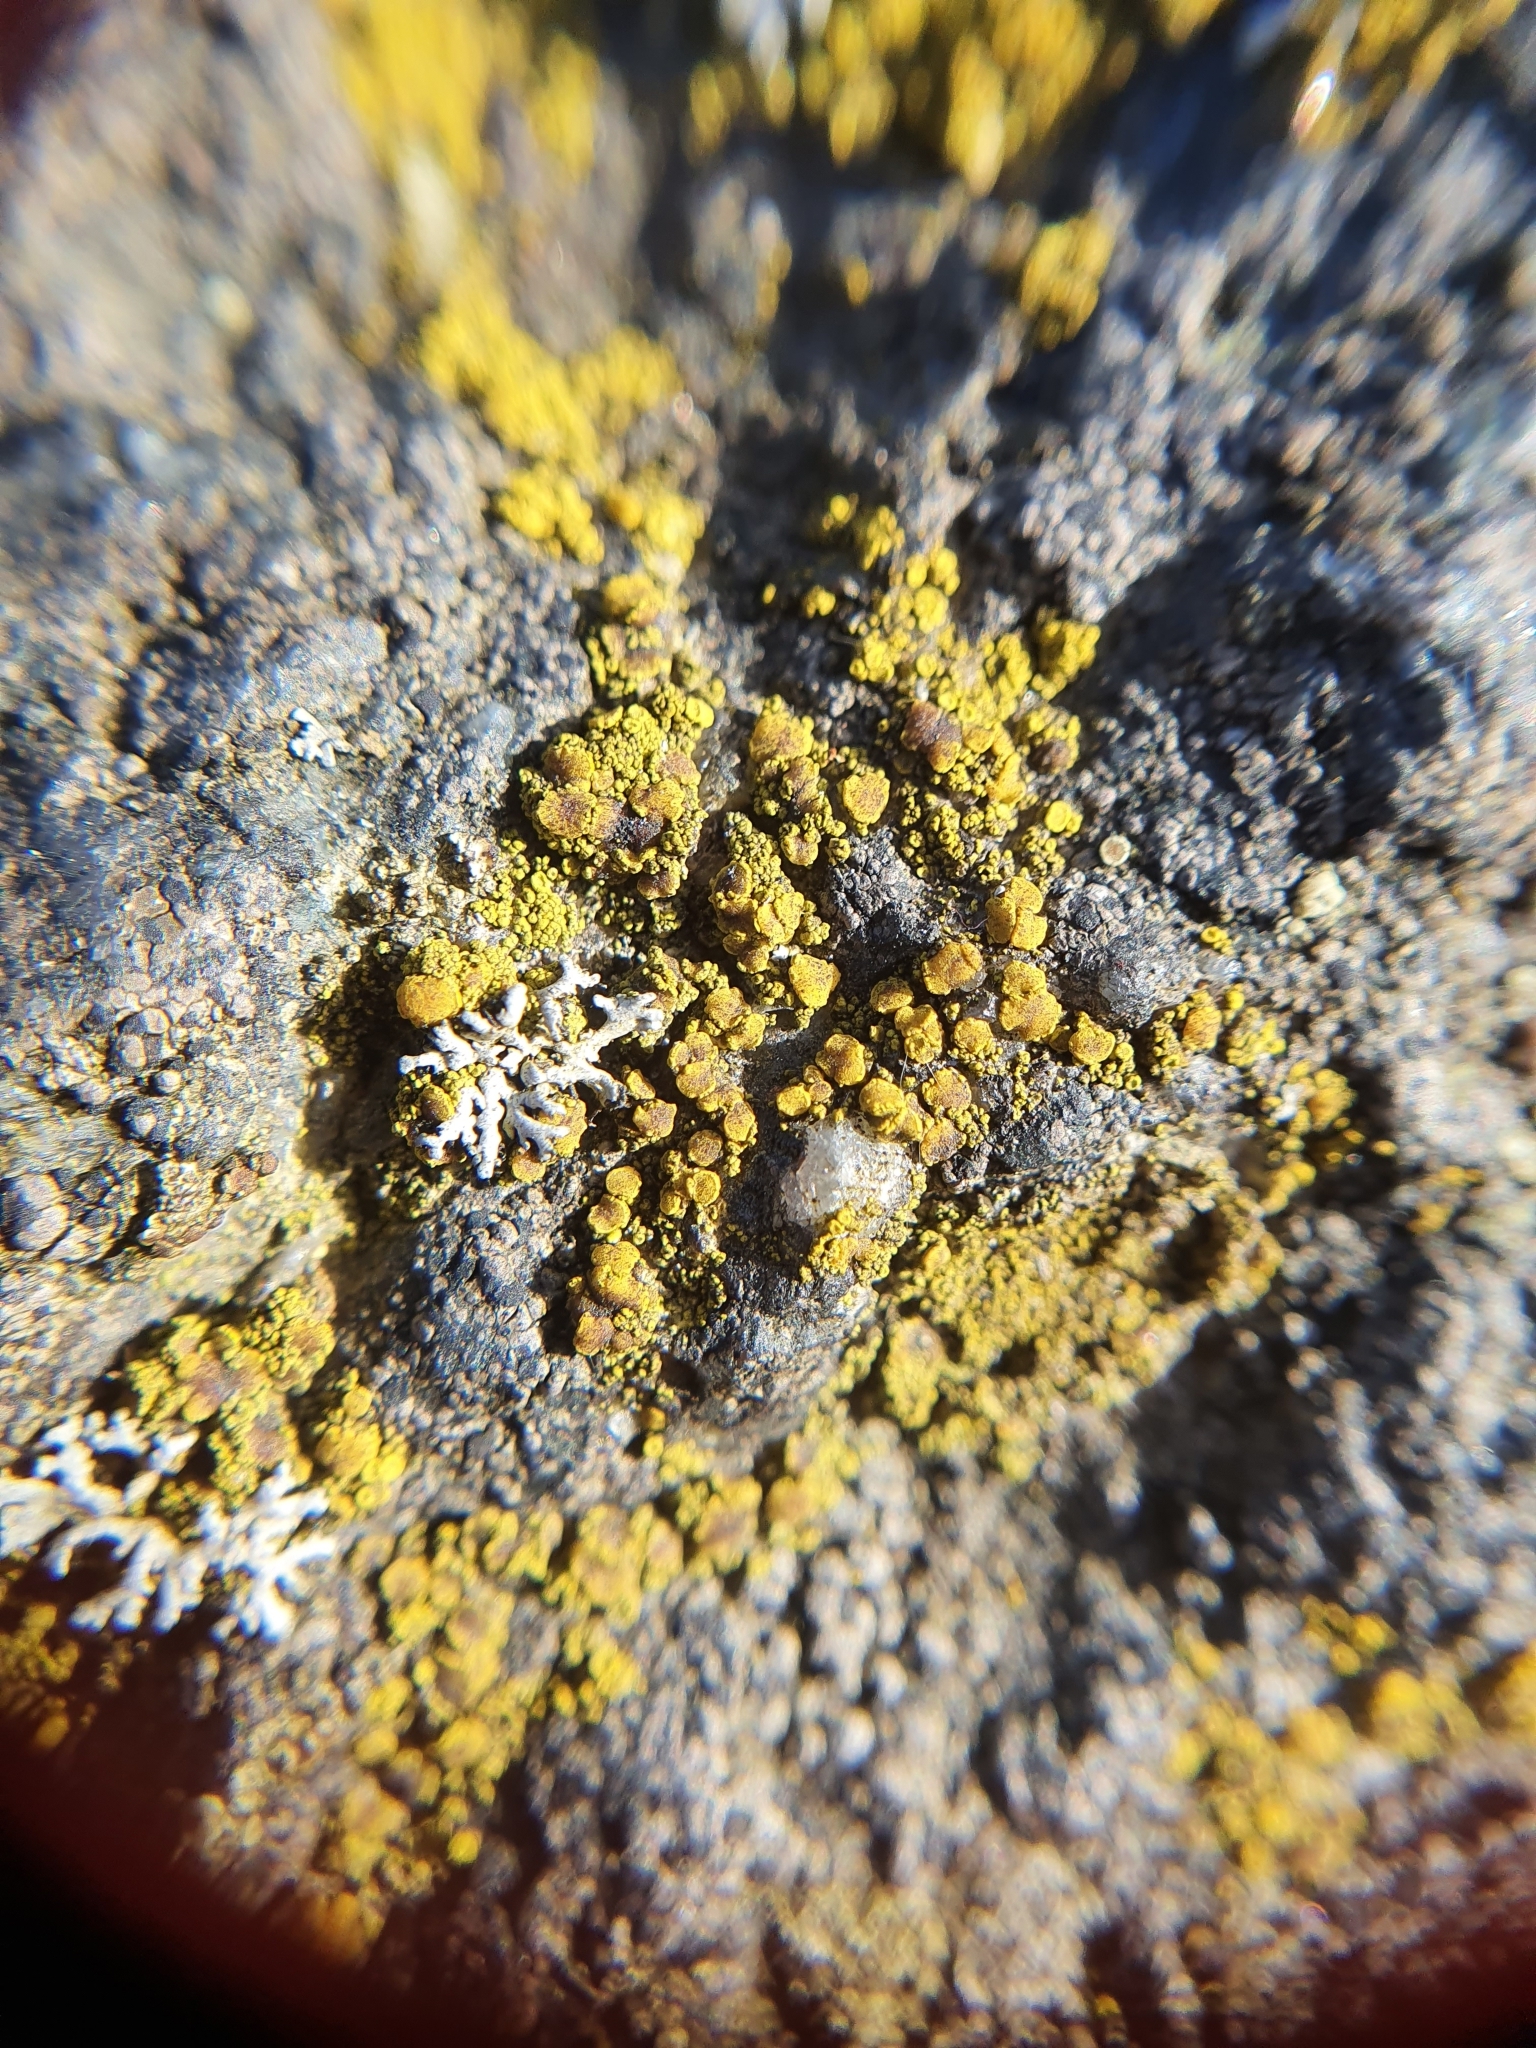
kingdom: Fungi
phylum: Ascomycota
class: Candelariomycetes
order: Candelariales
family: Candelariaceae
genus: Candelariella
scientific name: Candelariella vitellina
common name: Common goldspeck
